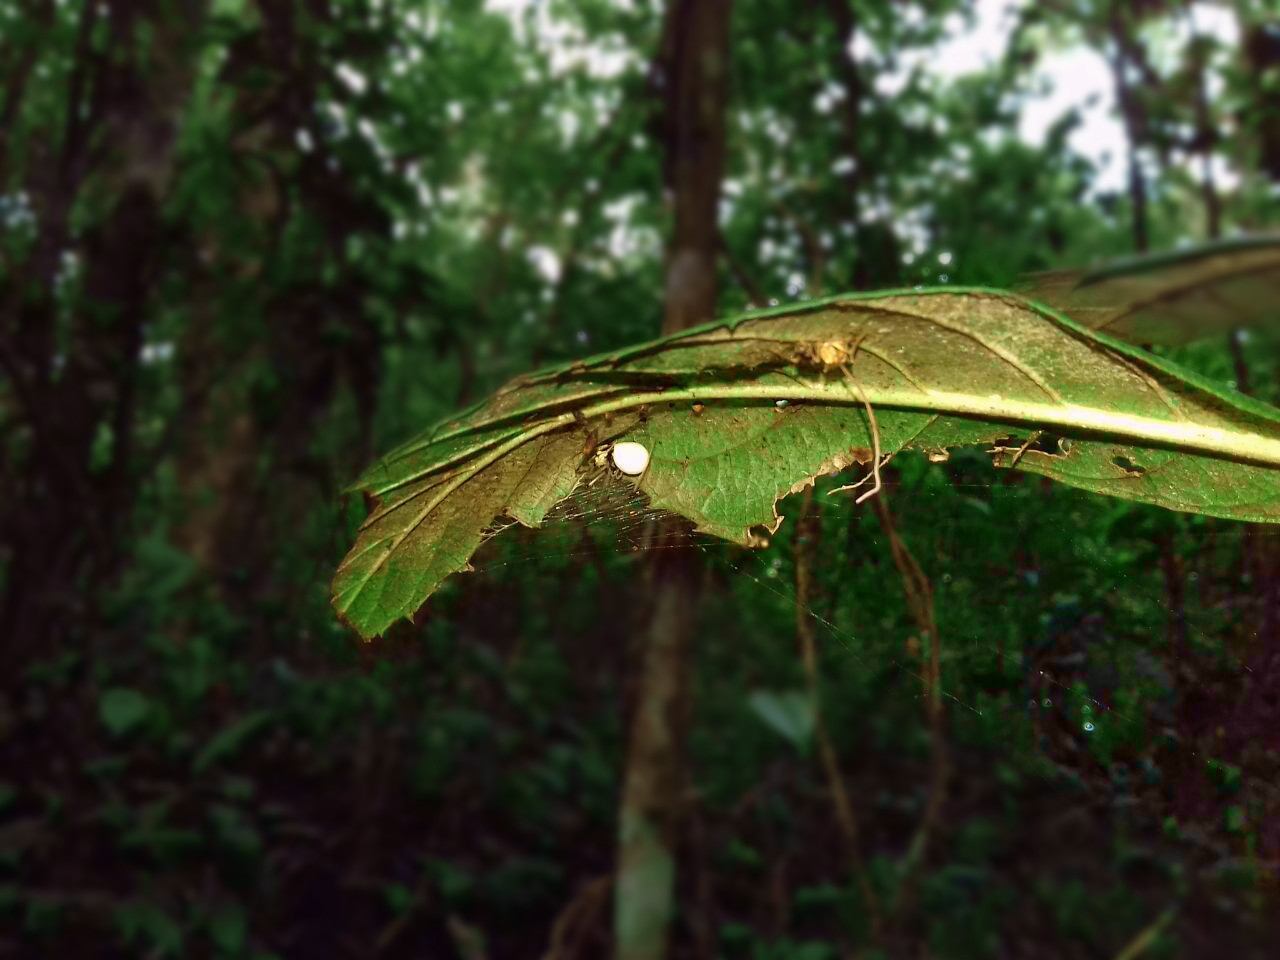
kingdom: Animalia
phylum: Arthropoda
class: Arachnida
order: Araneae
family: Theridiidae
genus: Theridion
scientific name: Theridion evexum
